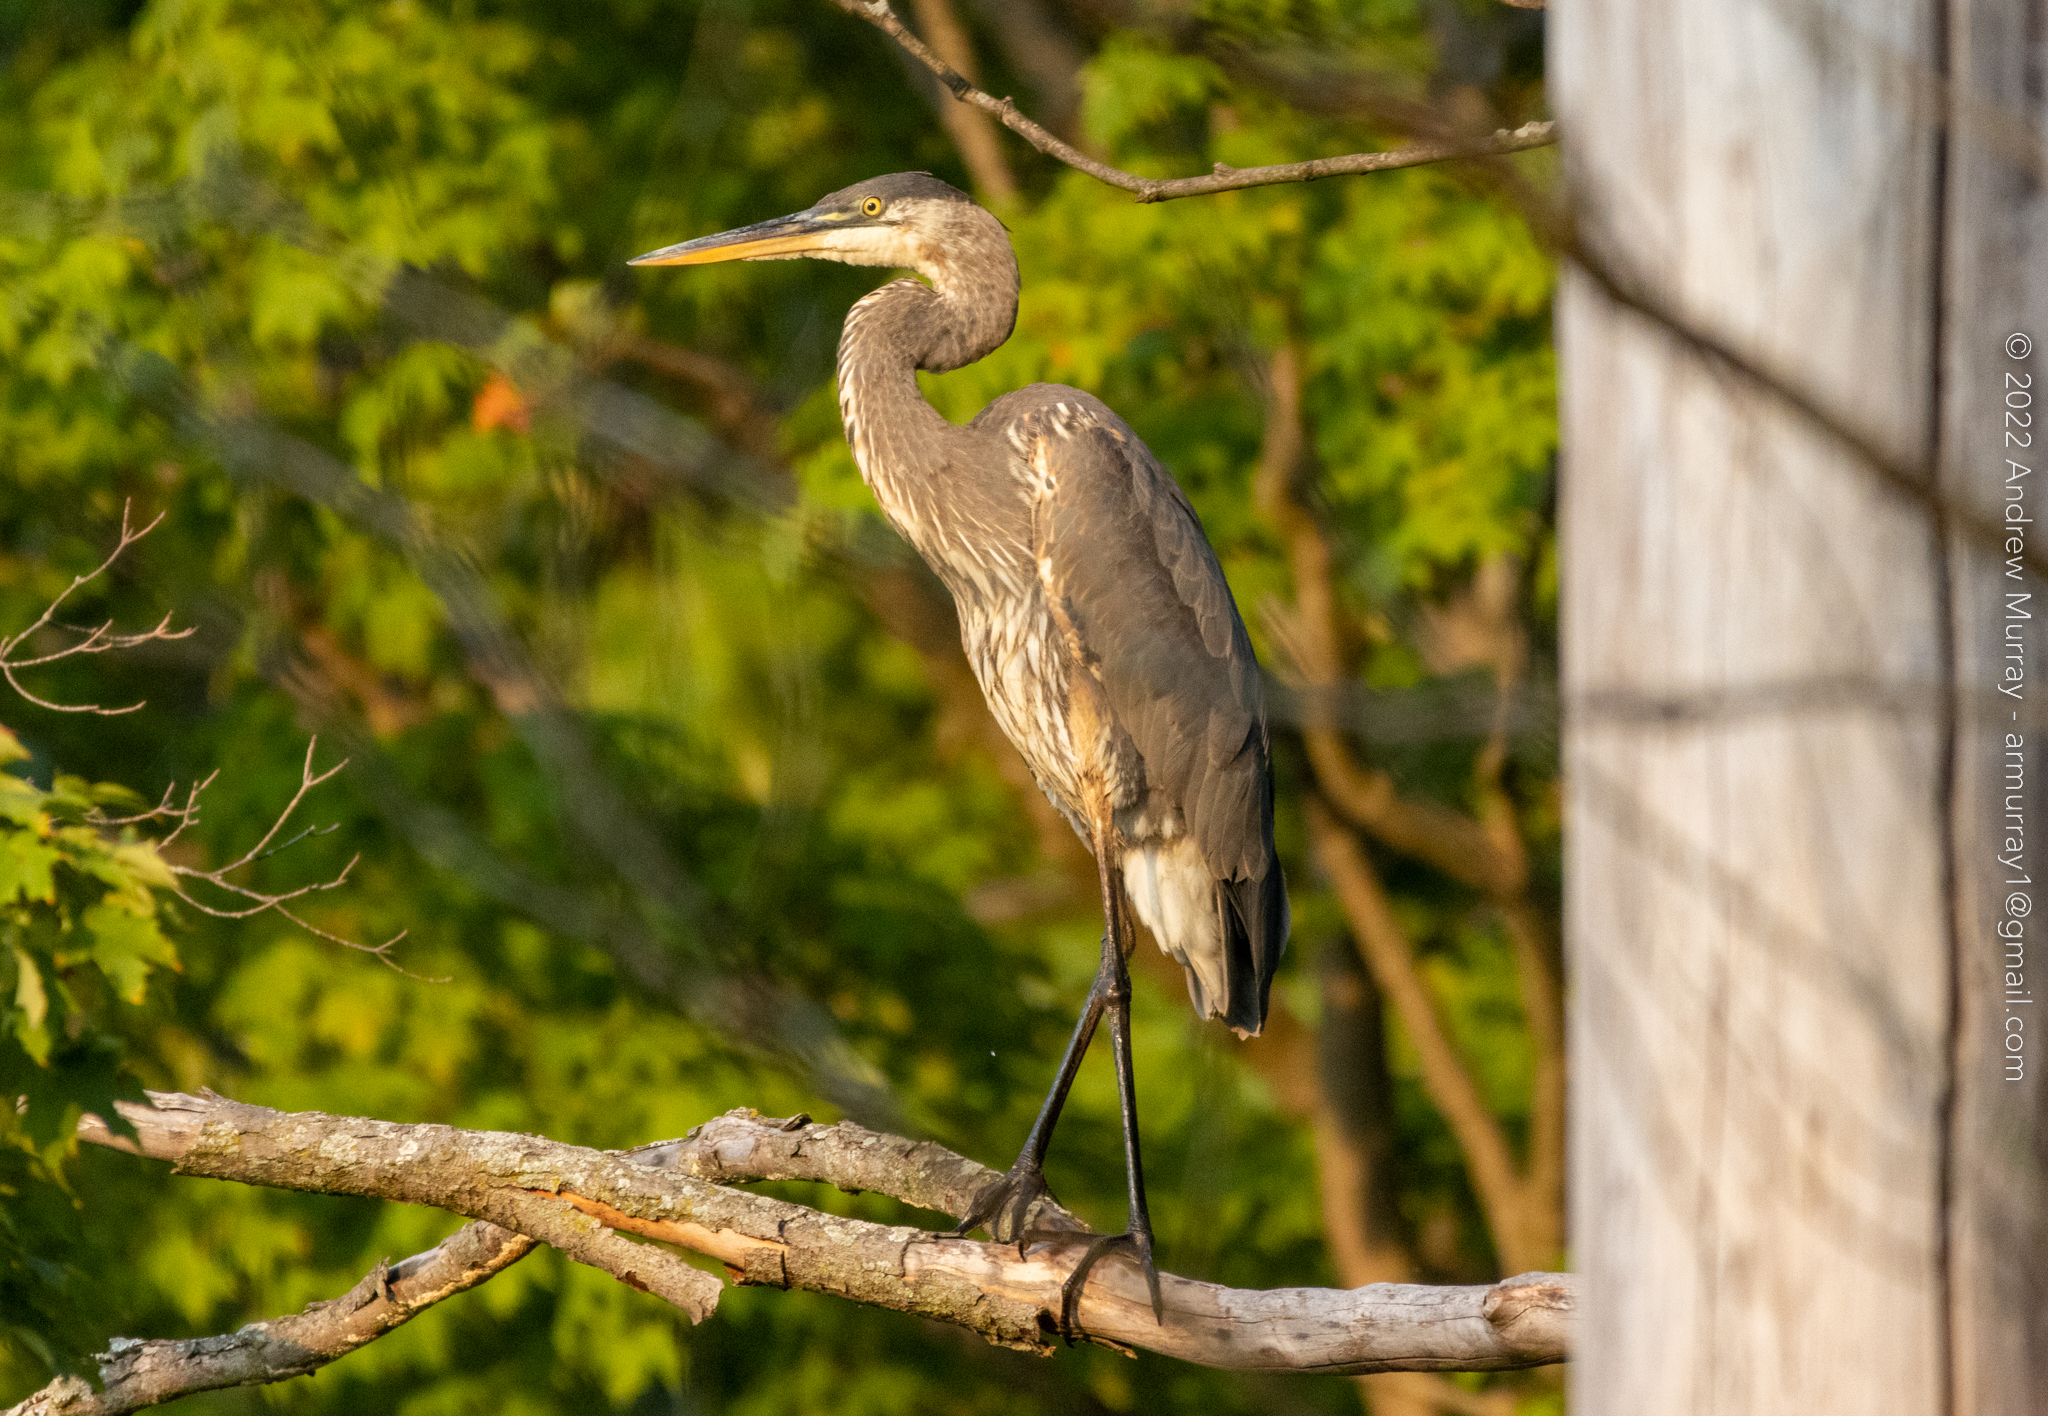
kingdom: Animalia
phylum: Chordata
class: Aves
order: Pelecaniformes
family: Ardeidae
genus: Ardea
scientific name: Ardea herodias
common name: Great blue heron
